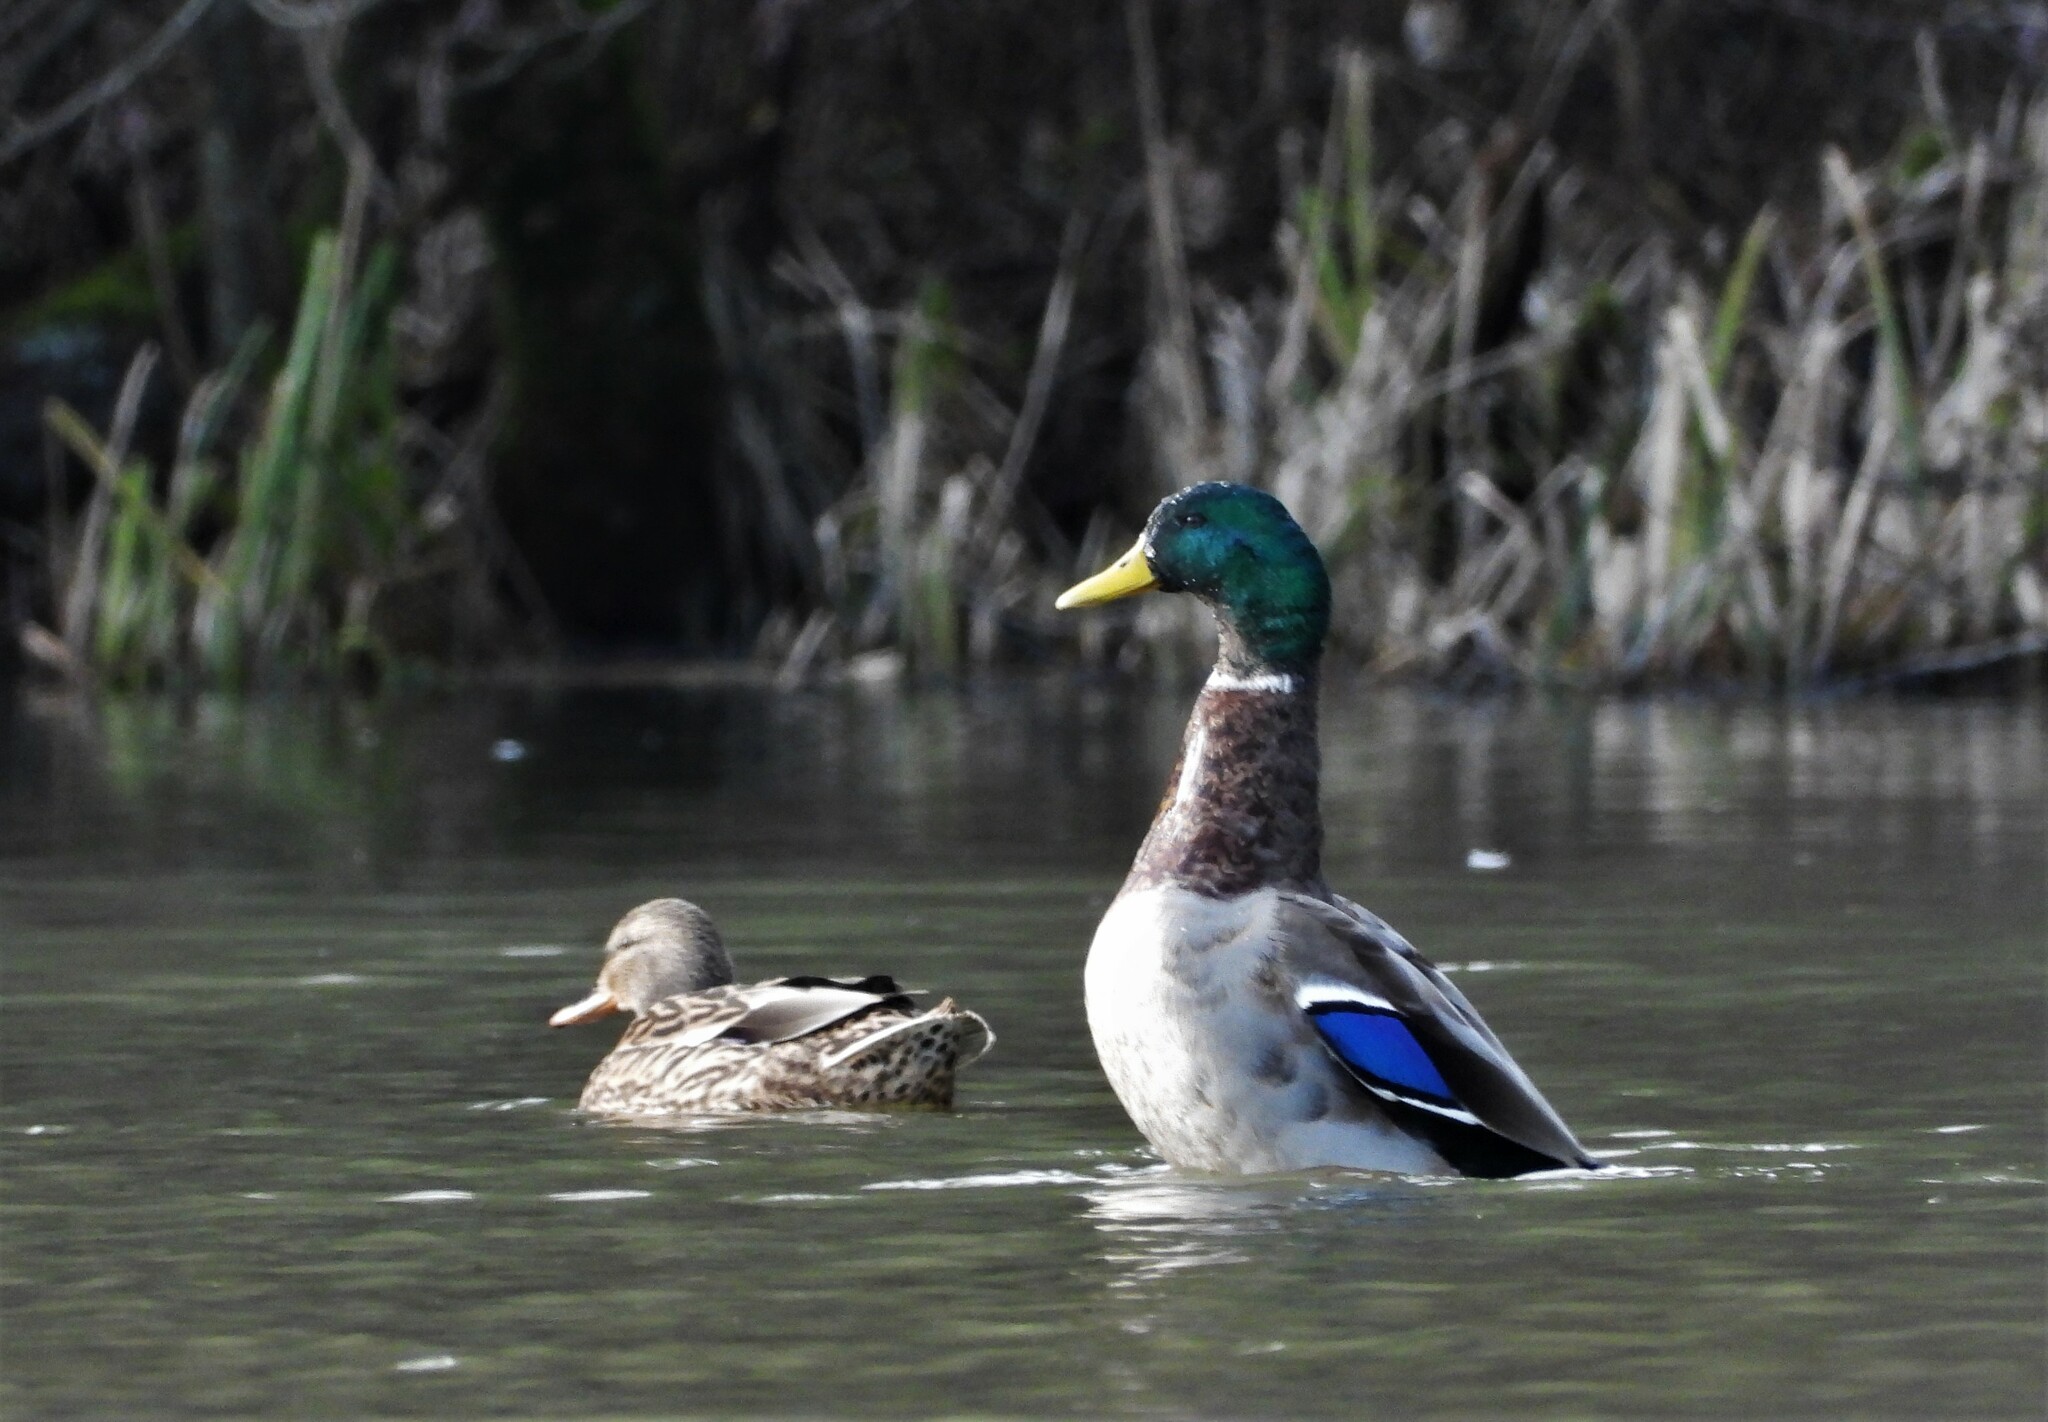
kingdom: Animalia
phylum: Chordata
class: Aves
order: Anseriformes
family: Anatidae
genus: Anas
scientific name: Anas platyrhynchos
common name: Mallard
